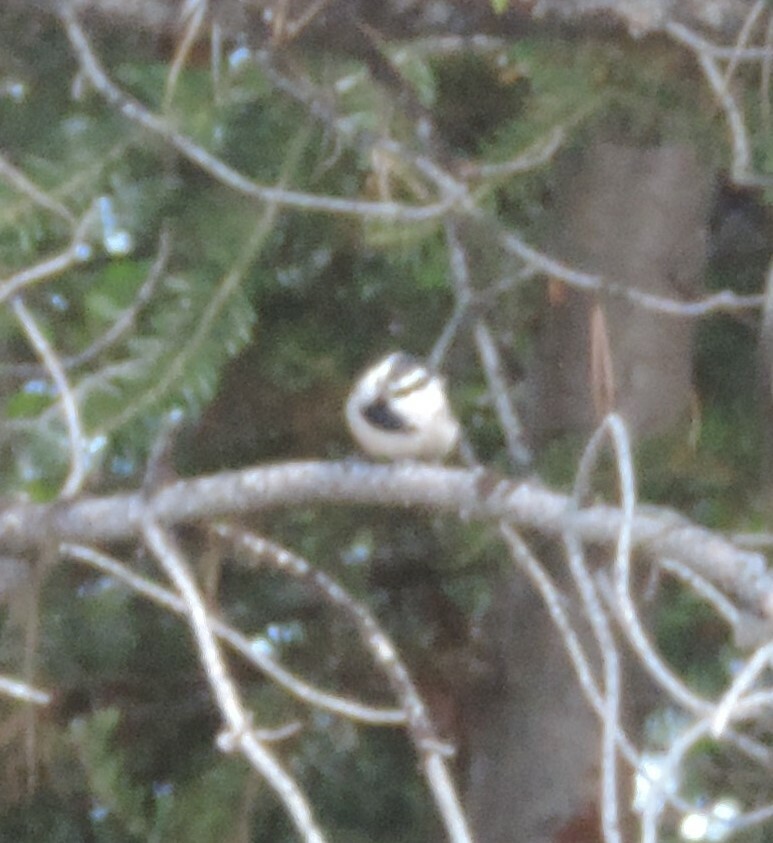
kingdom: Animalia
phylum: Chordata
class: Aves
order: Passeriformes
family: Paridae
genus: Poecile
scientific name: Poecile gambeli
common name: Mountain chickadee
